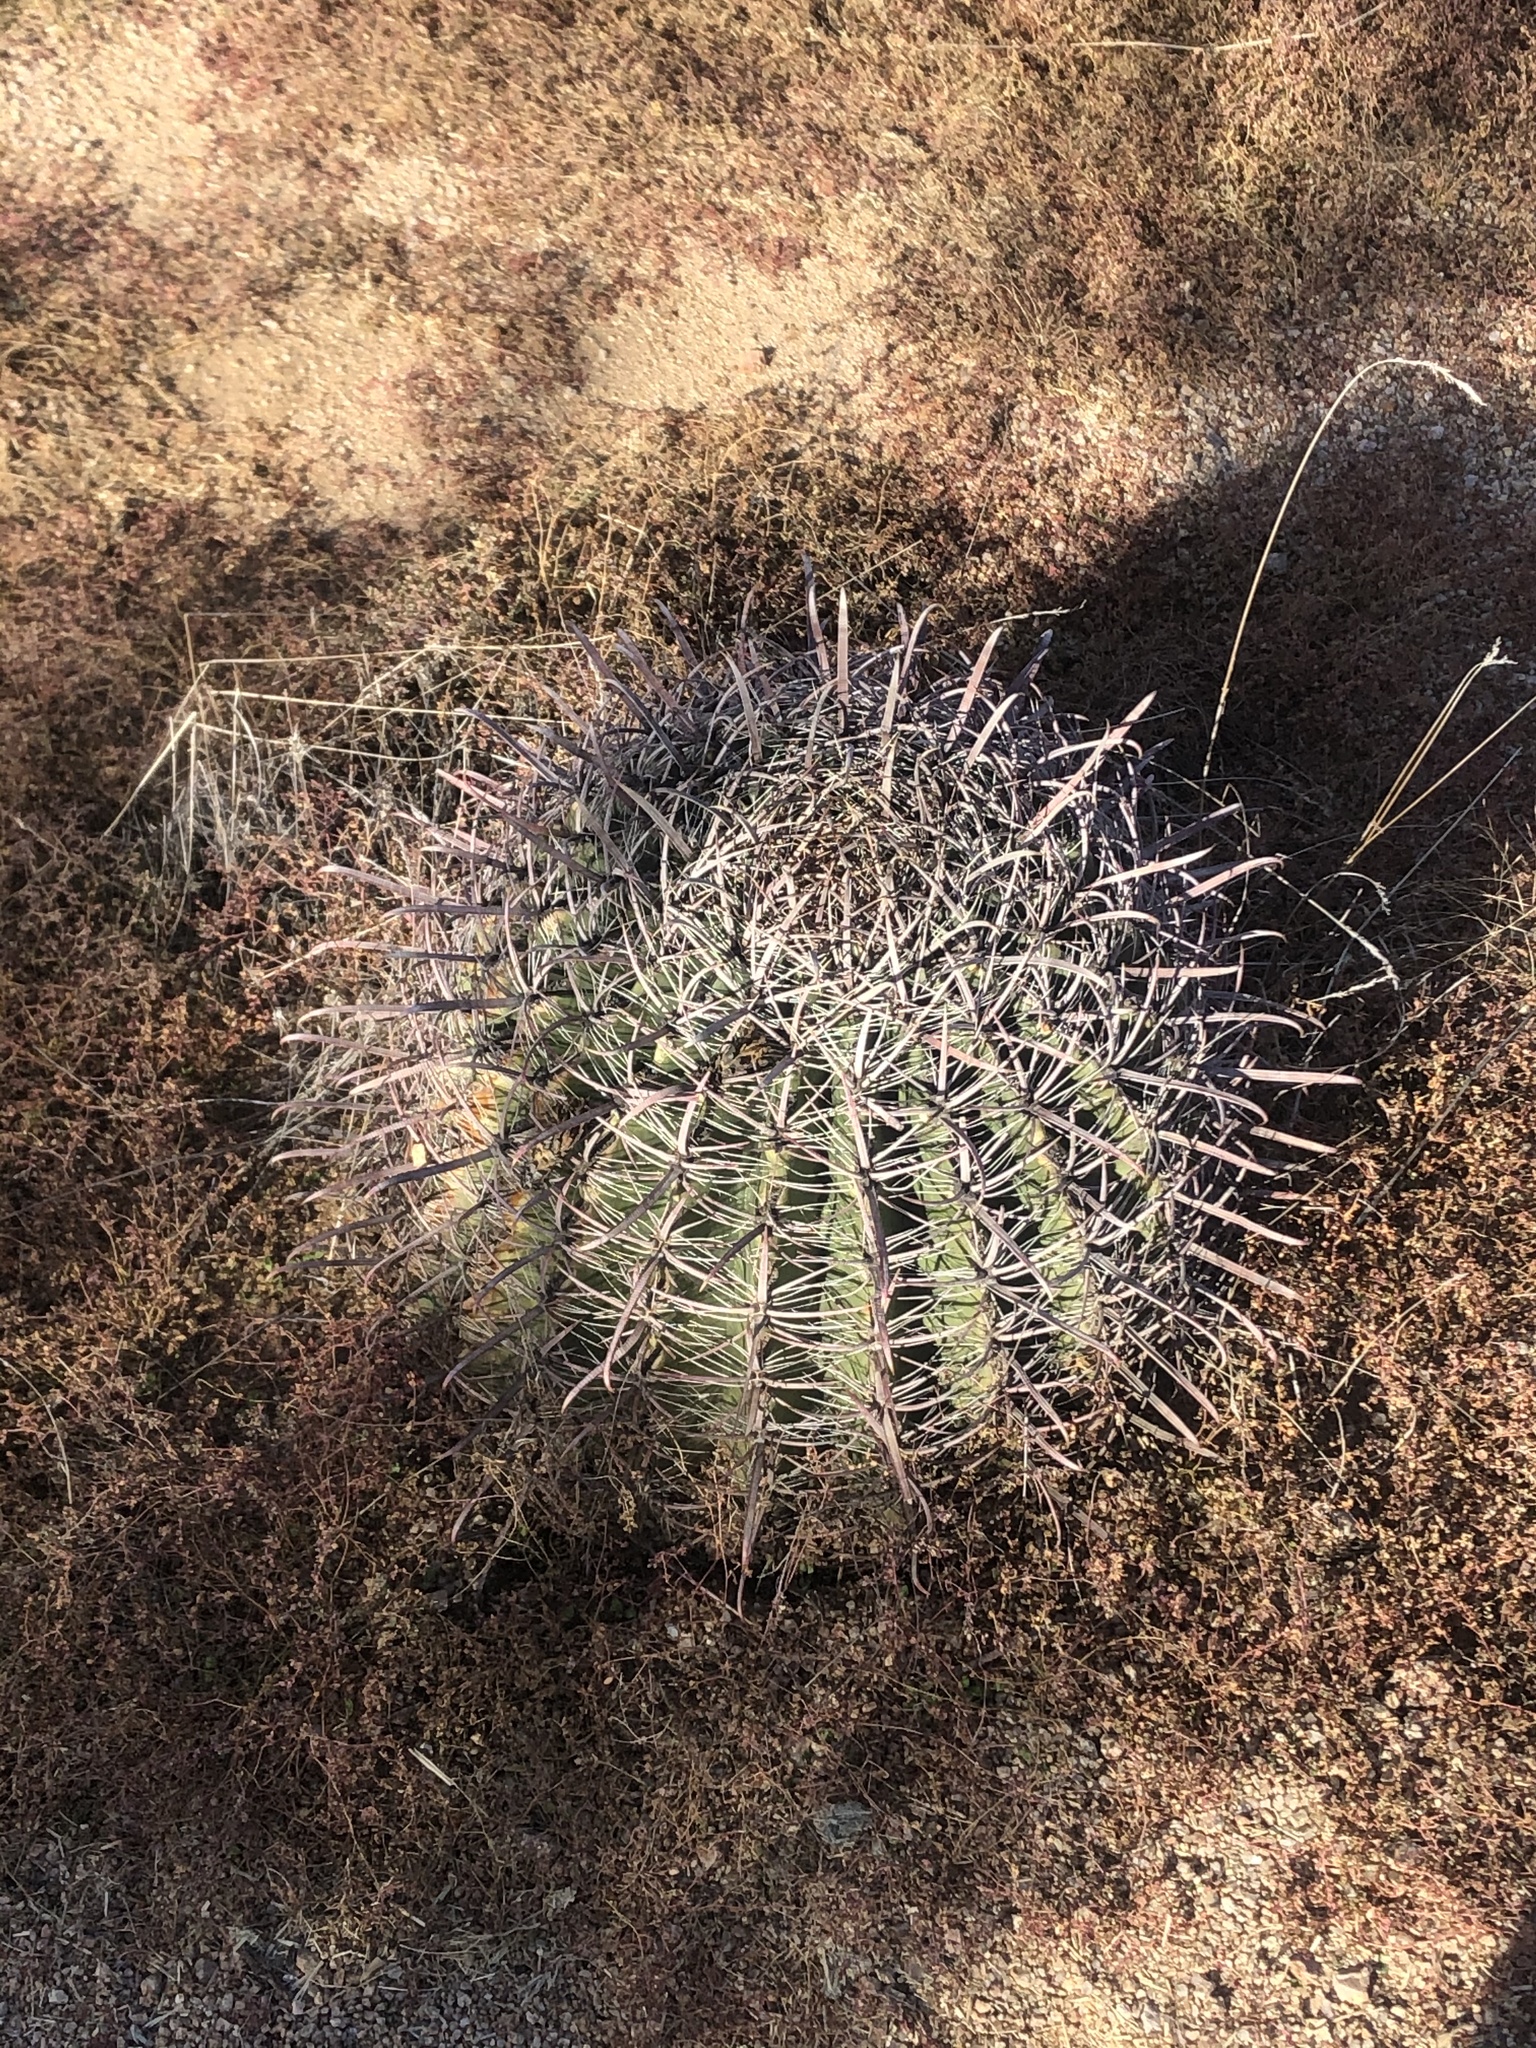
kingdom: Plantae
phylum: Tracheophyta
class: Magnoliopsida
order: Caryophyllales
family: Cactaceae
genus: Ferocactus
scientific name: Ferocactus cylindraceus
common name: California barrel cactus
